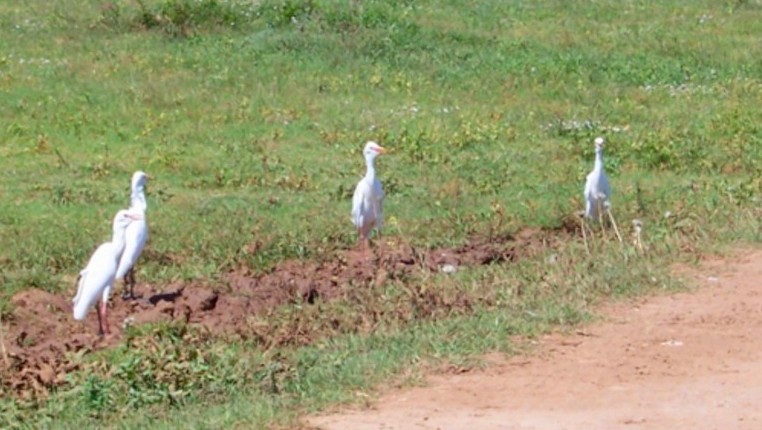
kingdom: Animalia
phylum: Chordata
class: Aves
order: Pelecaniformes
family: Ardeidae
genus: Bubulcus
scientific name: Bubulcus ibis
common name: Cattle egret
